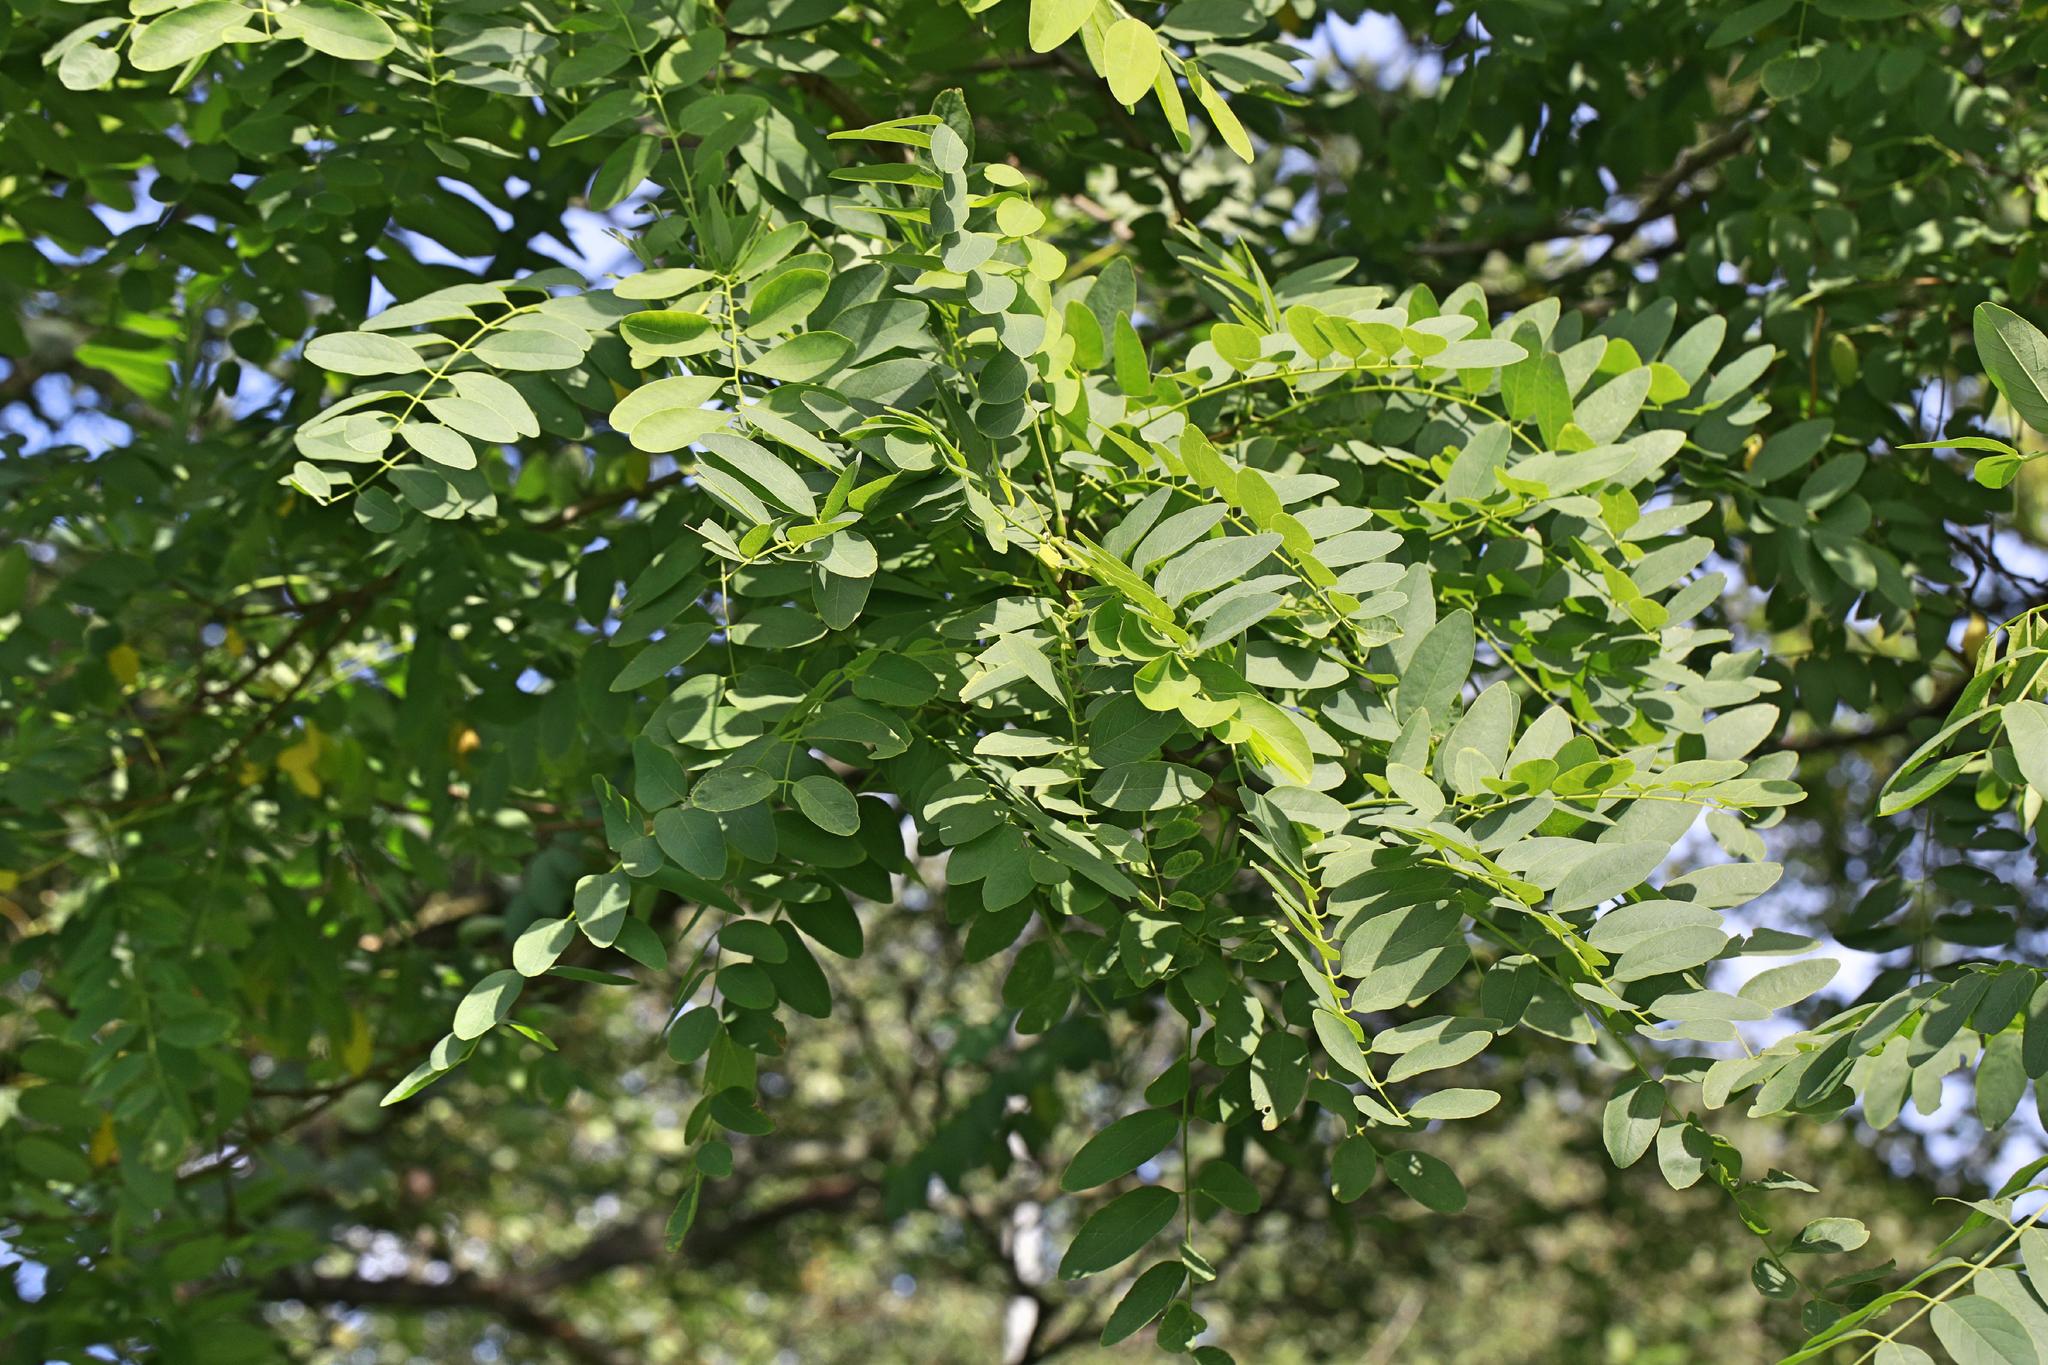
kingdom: Plantae
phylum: Tracheophyta
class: Magnoliopsida
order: Fabales
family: Fabaceae
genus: Robinia
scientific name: Robinia pseudoacacia
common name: Black locust
